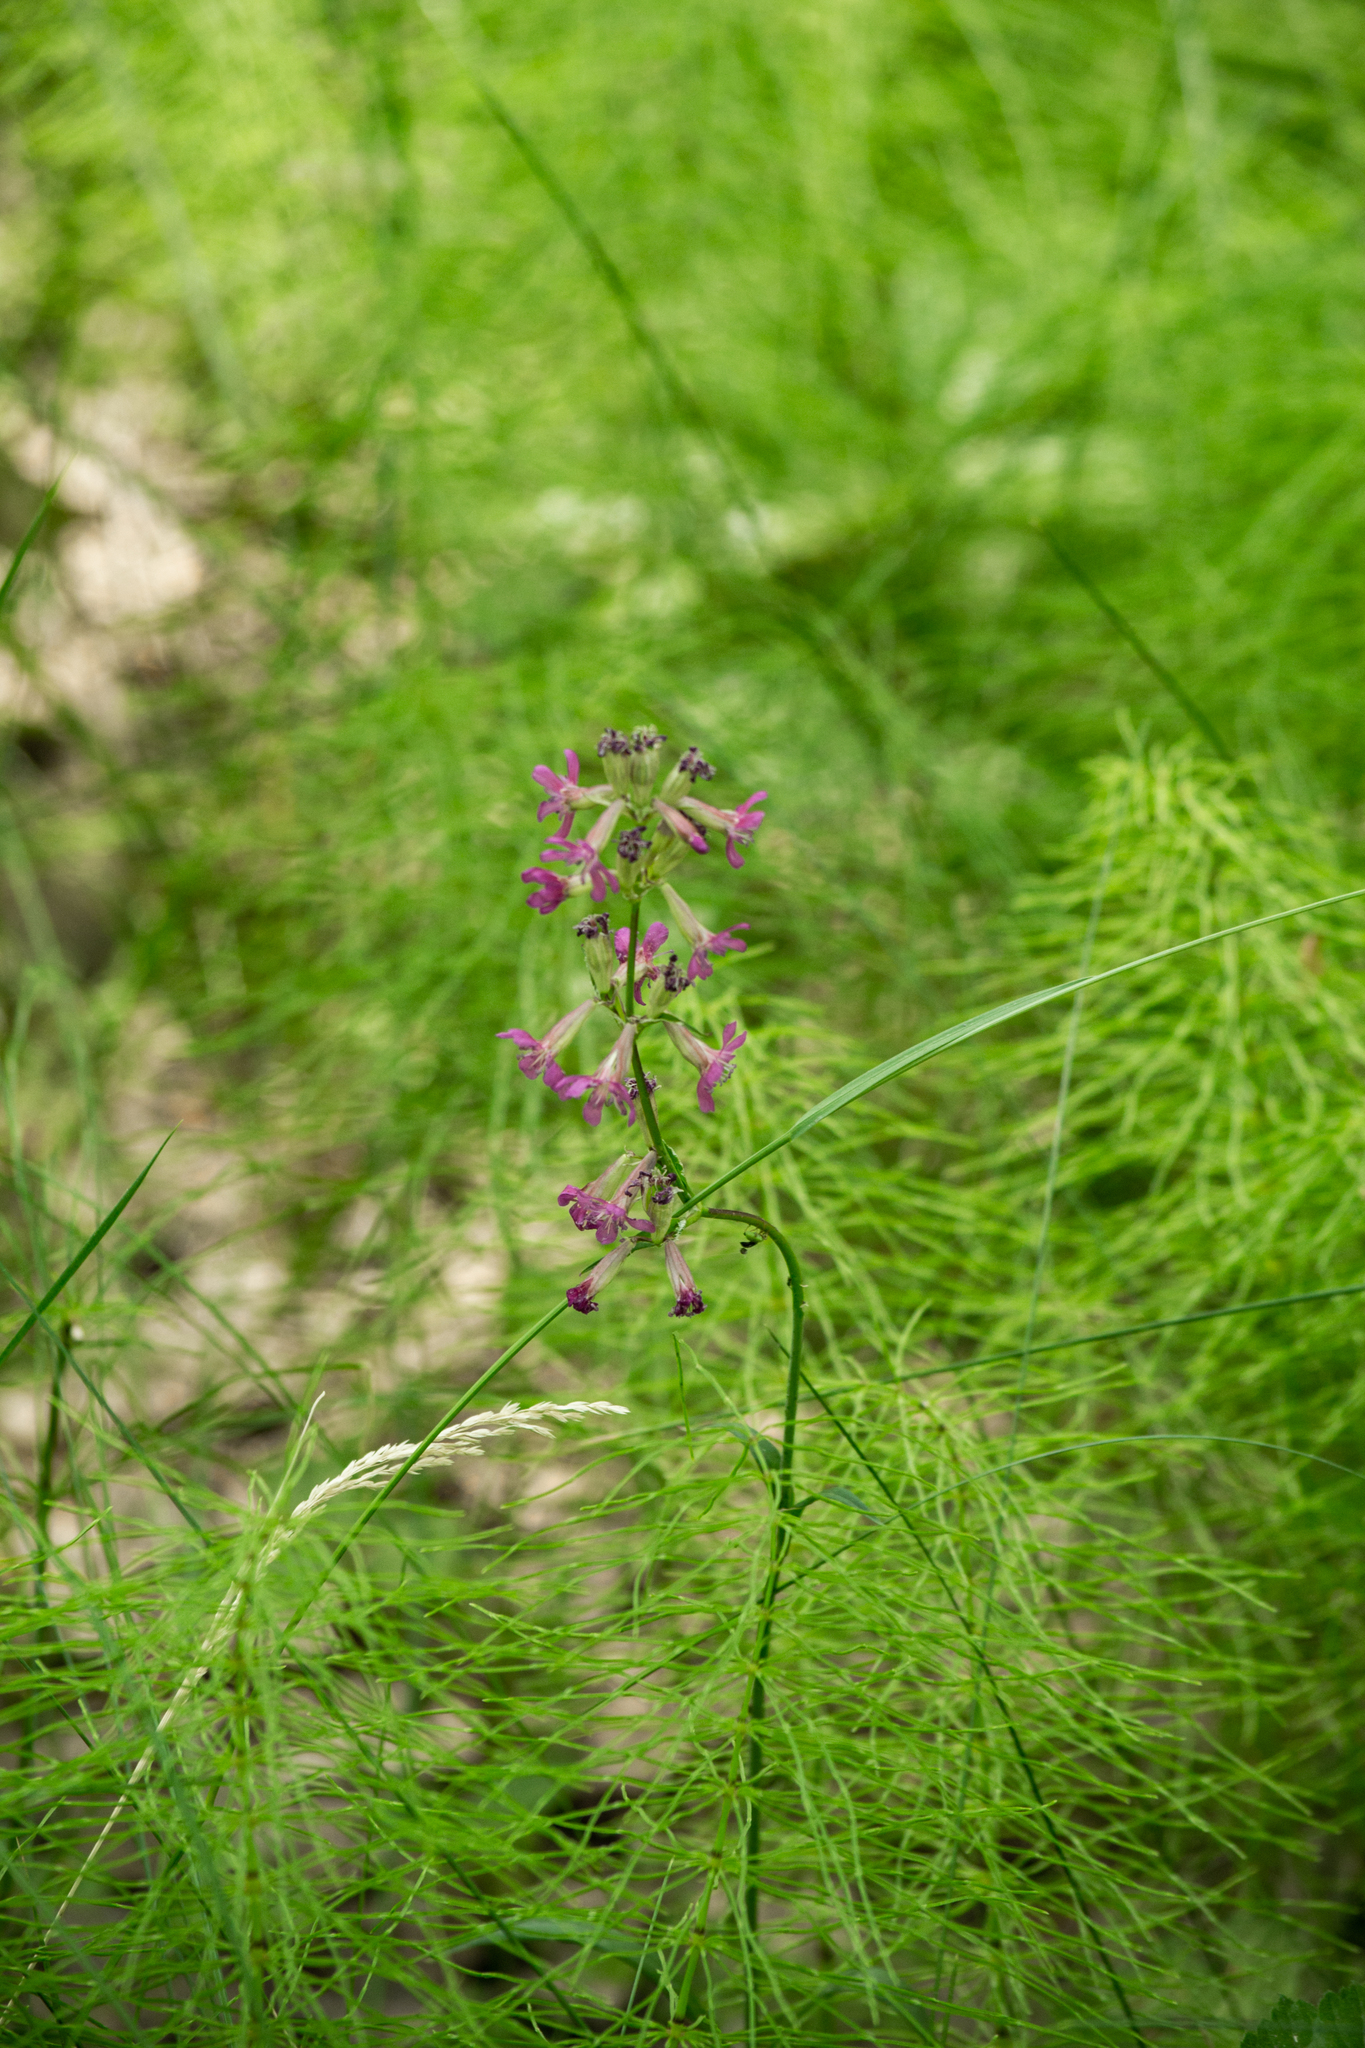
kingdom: Plantae
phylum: Tracheophyta
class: Magnoliopsida
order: Caryophyllales
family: Caryophyllaceae
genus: Viscaria
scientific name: Viscaria vulgaris
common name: Clammy campion
